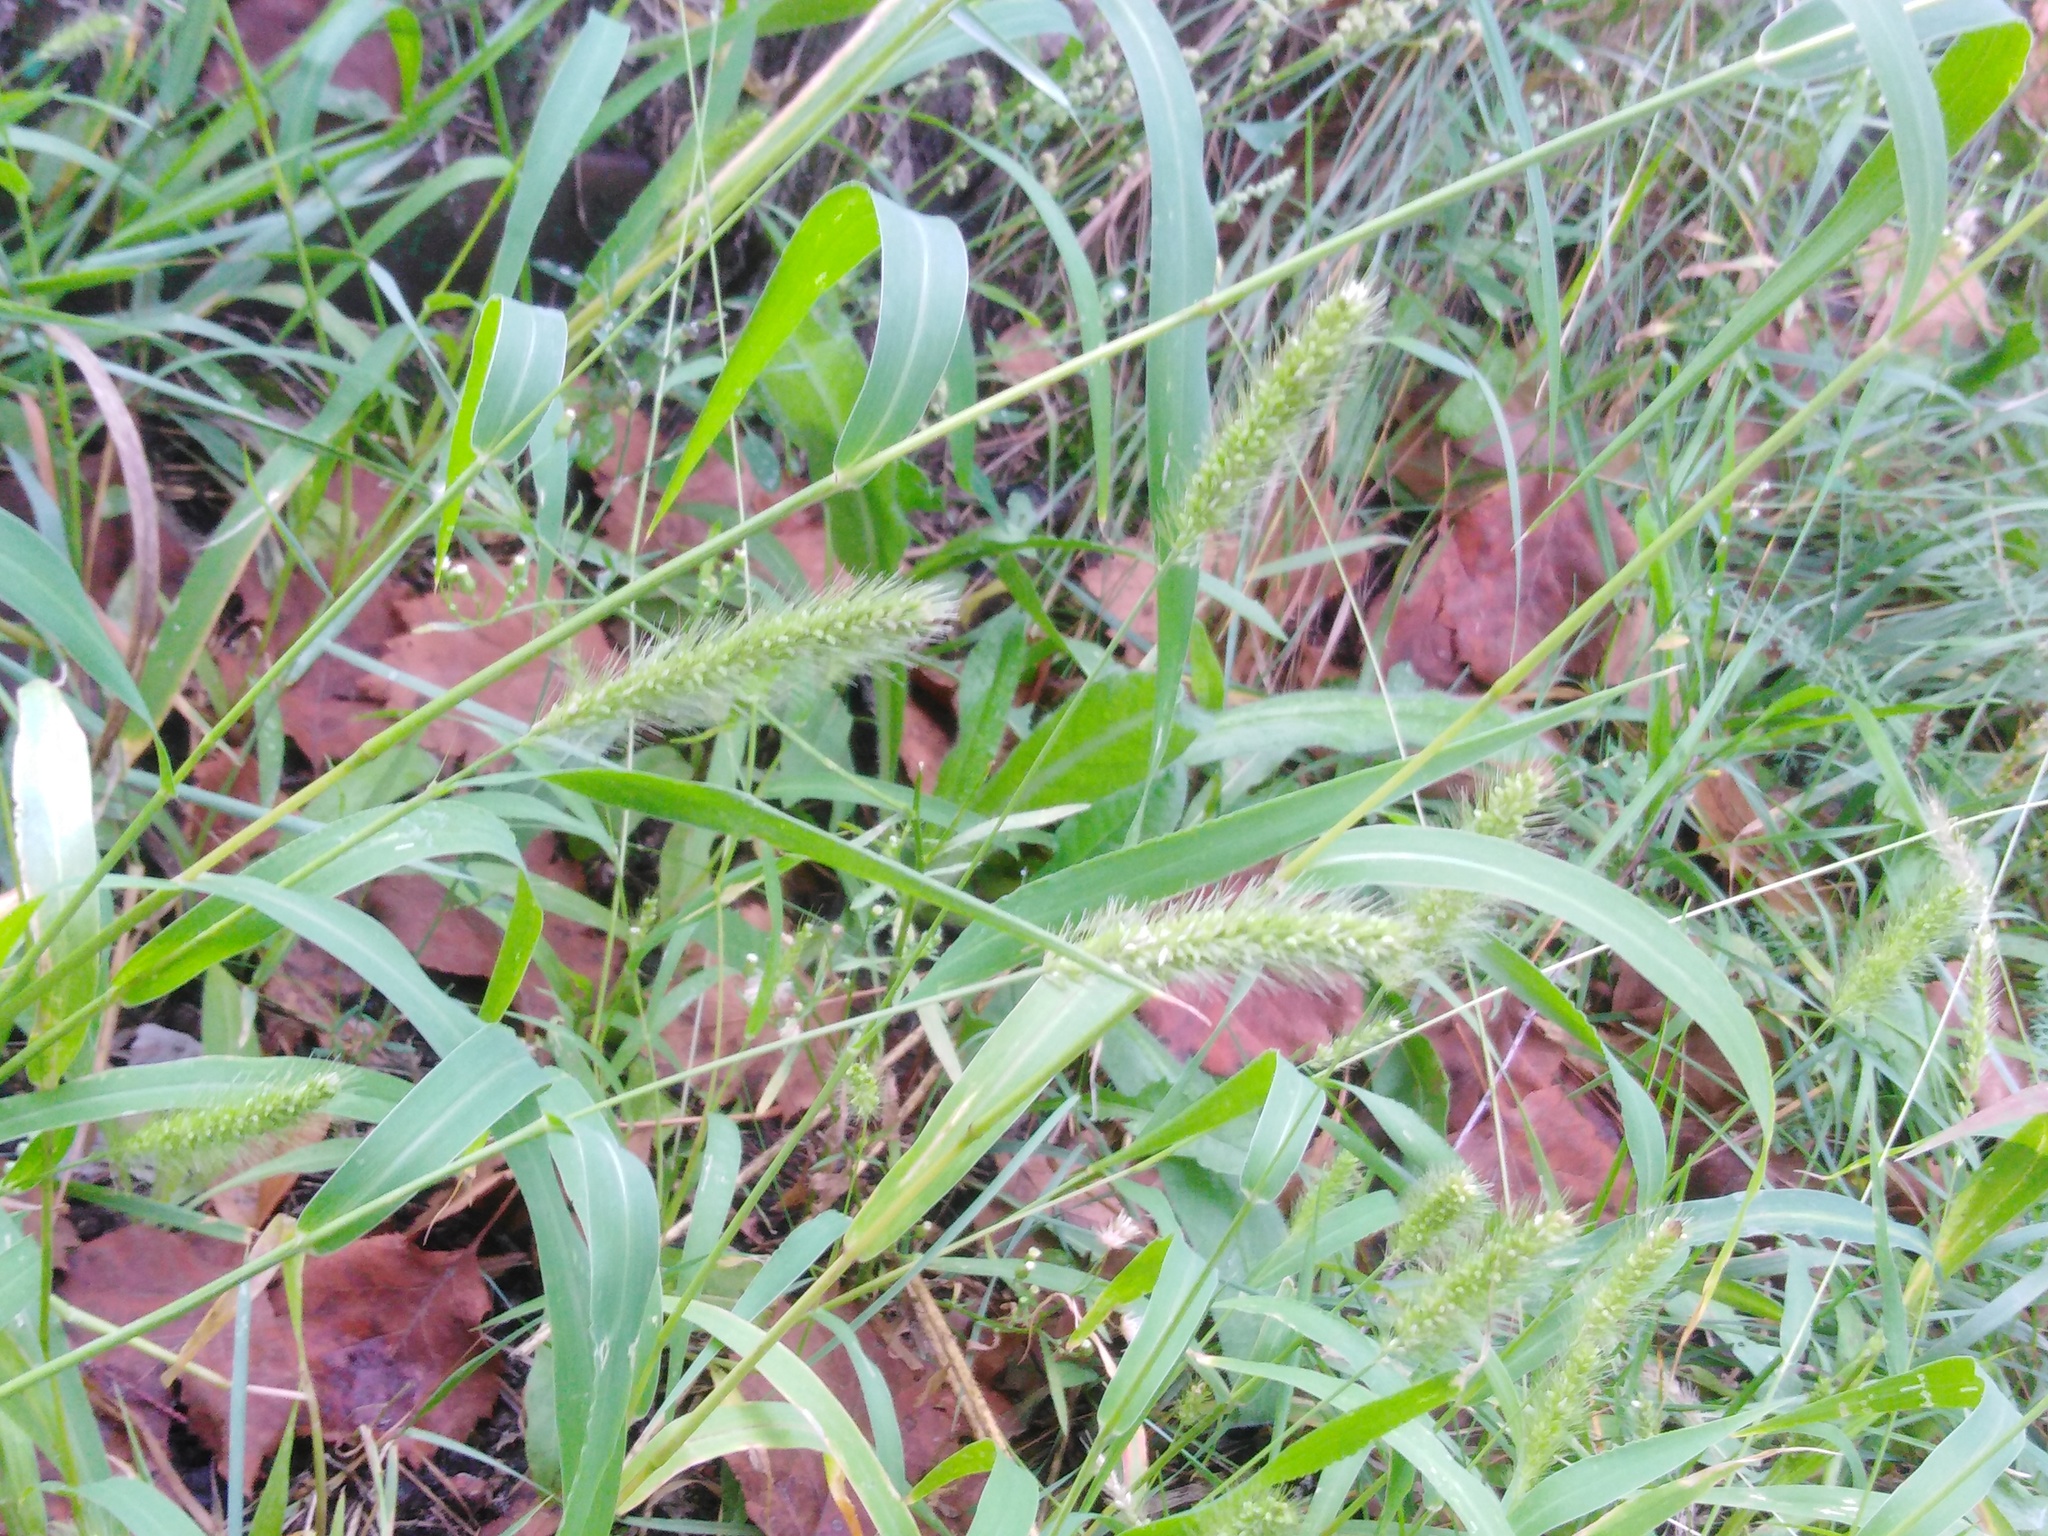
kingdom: Plantae
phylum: Tracheophyta
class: Liliopsida
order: Poales
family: Poaceae
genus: Setaria
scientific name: Setaria viridis
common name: Green bristlegrass
